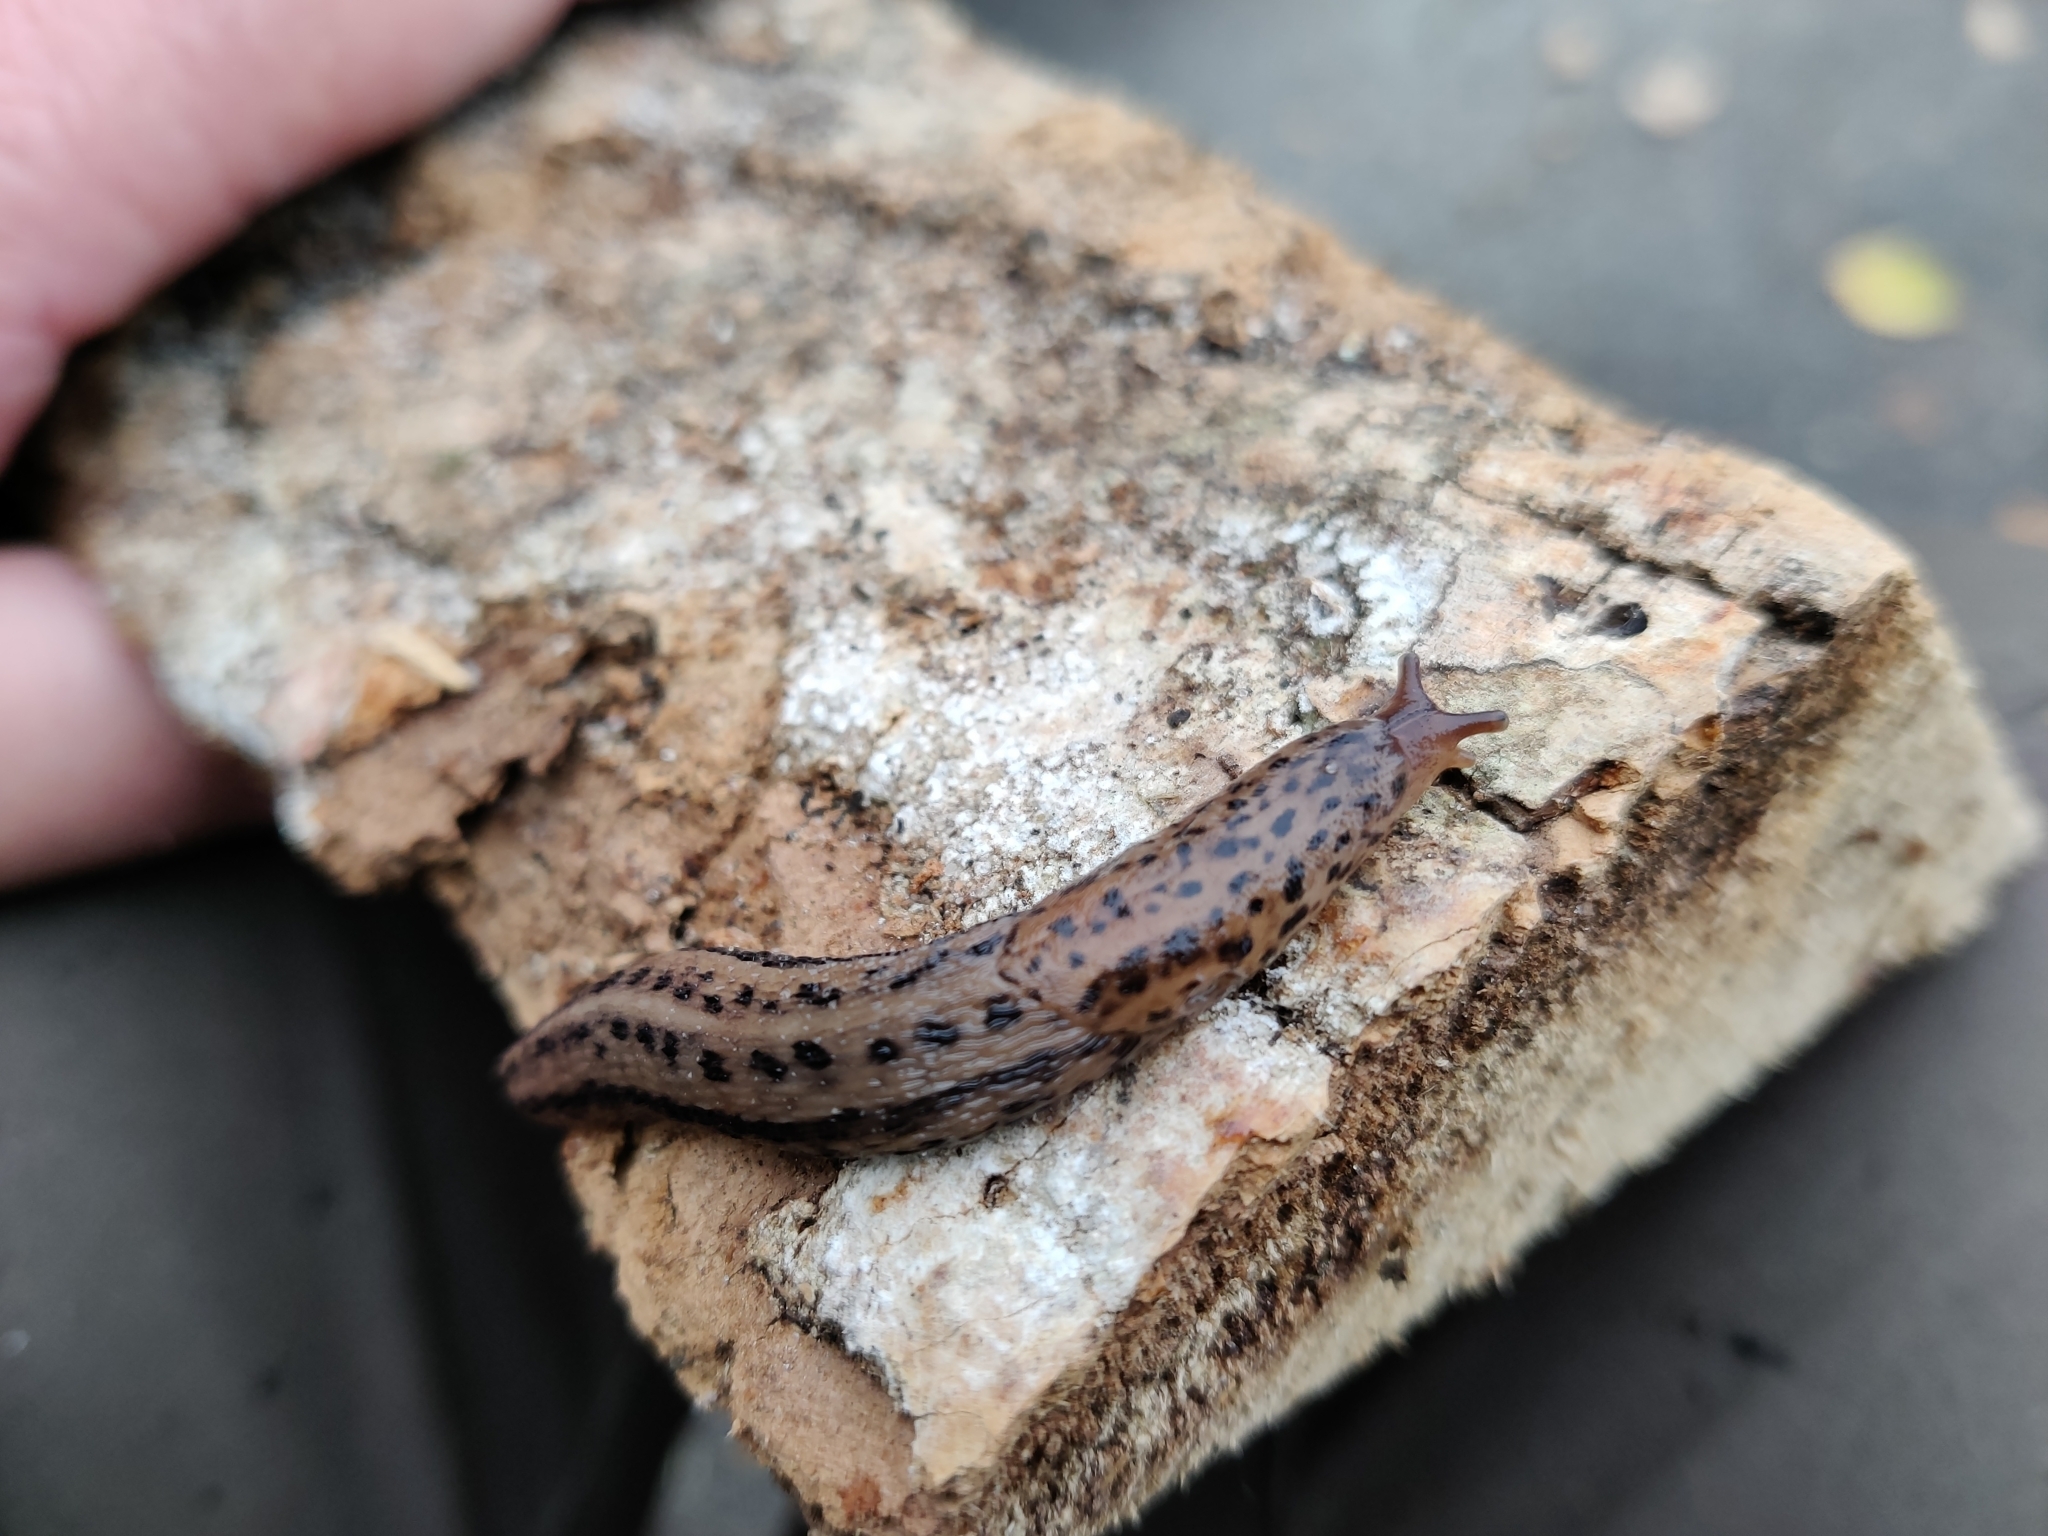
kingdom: Animalia
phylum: Mollusca
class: Gastropoda
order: Stylommatophora
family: Limacidae
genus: Limax
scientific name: Limax maximus
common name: Great grey slug
